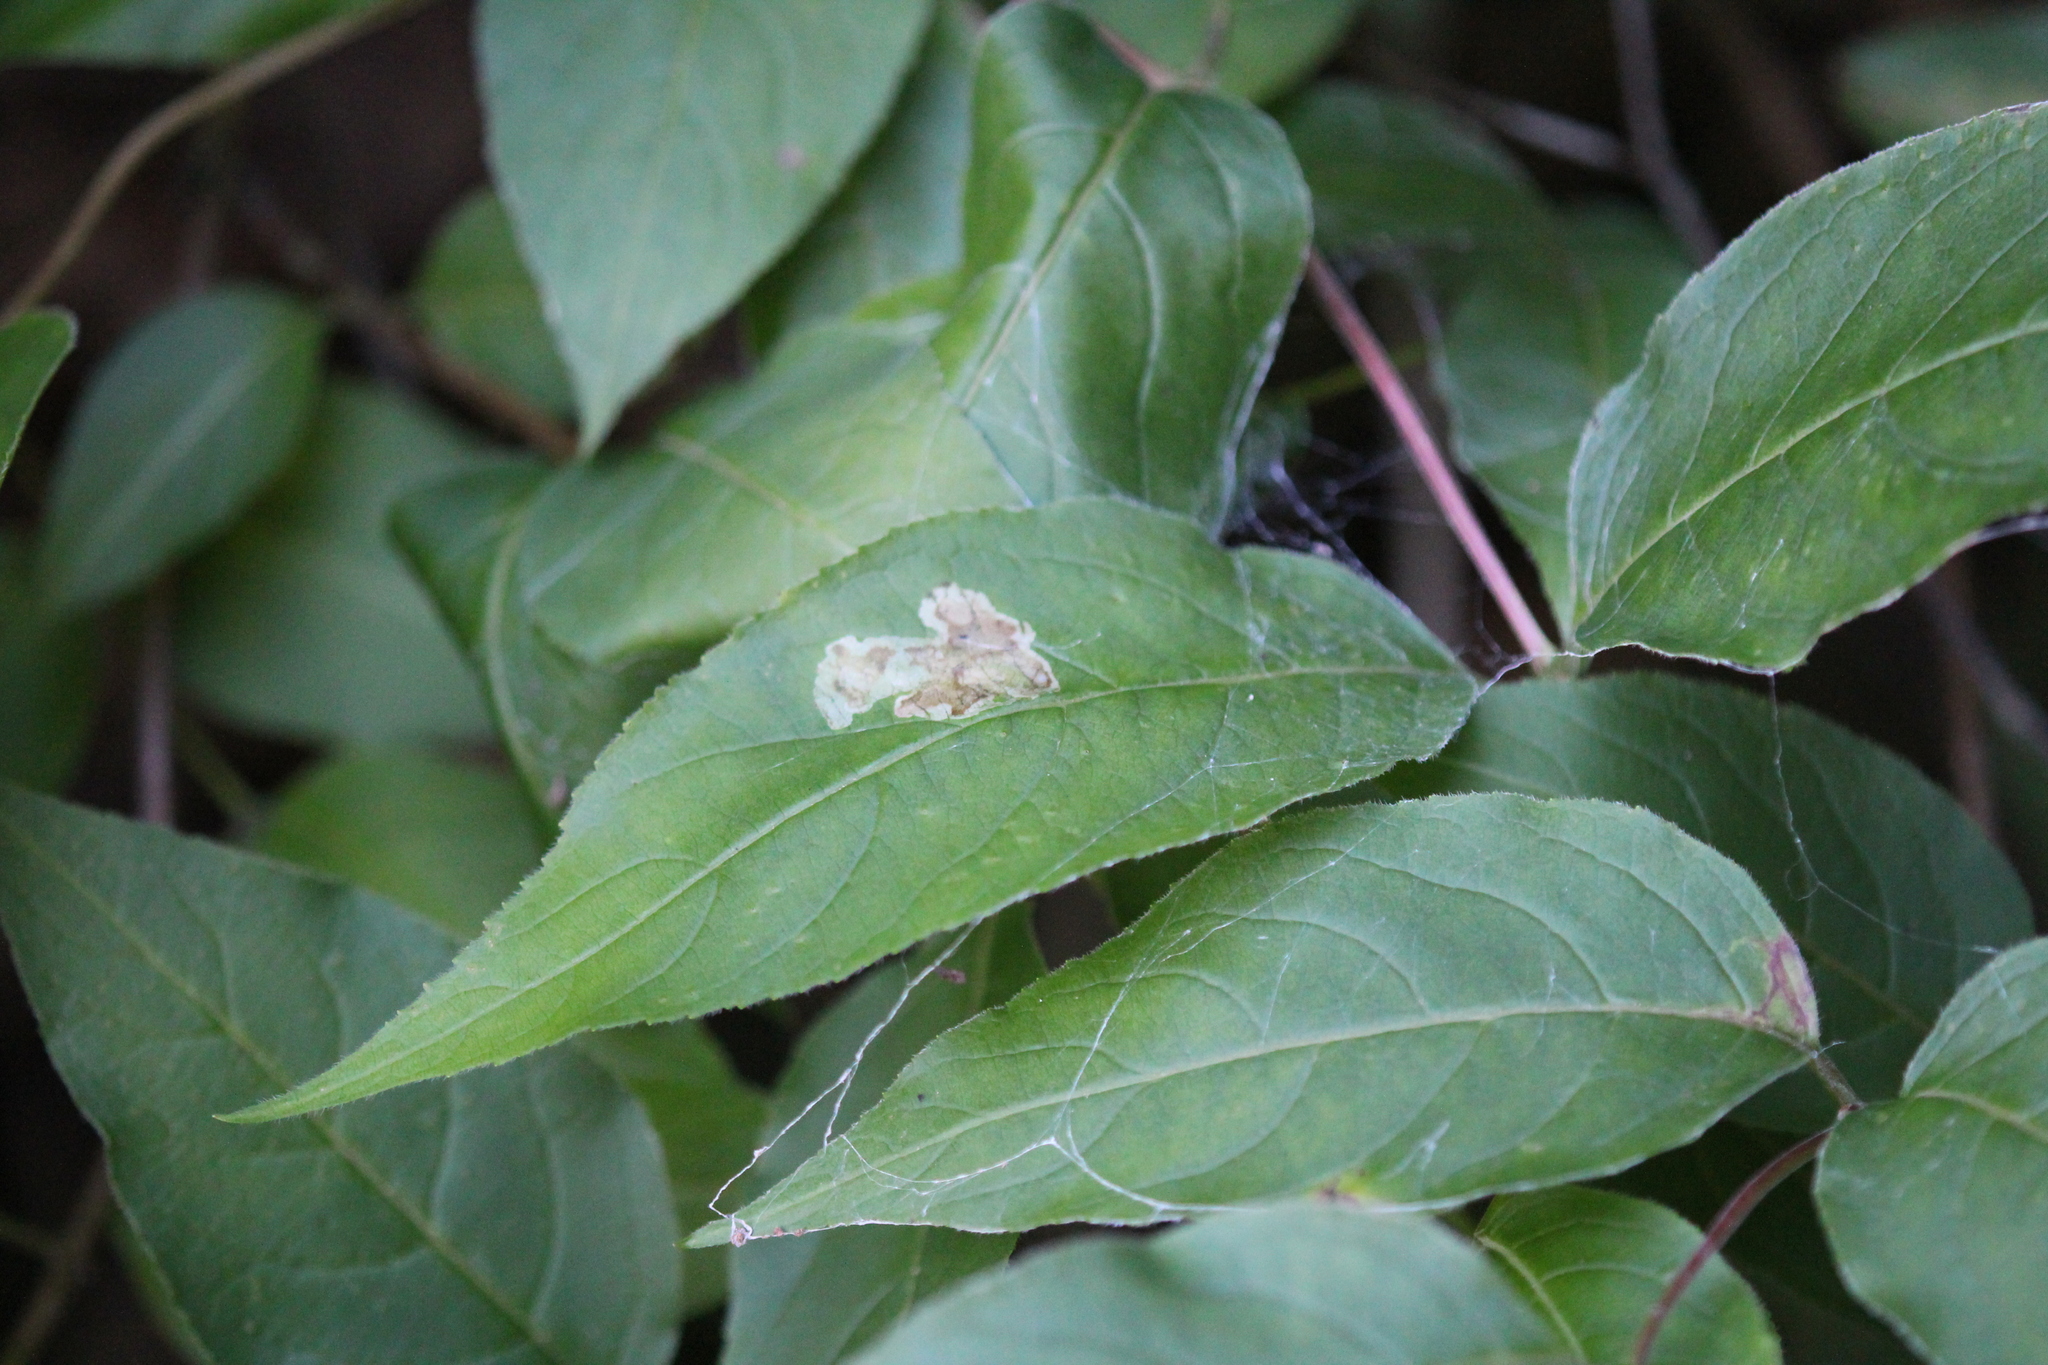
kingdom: Animalia
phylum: Arthropoda
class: Insecta
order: Diptera
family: Agromyzidae
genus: Aulagromyza
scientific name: Aulagromyza orbitalis
